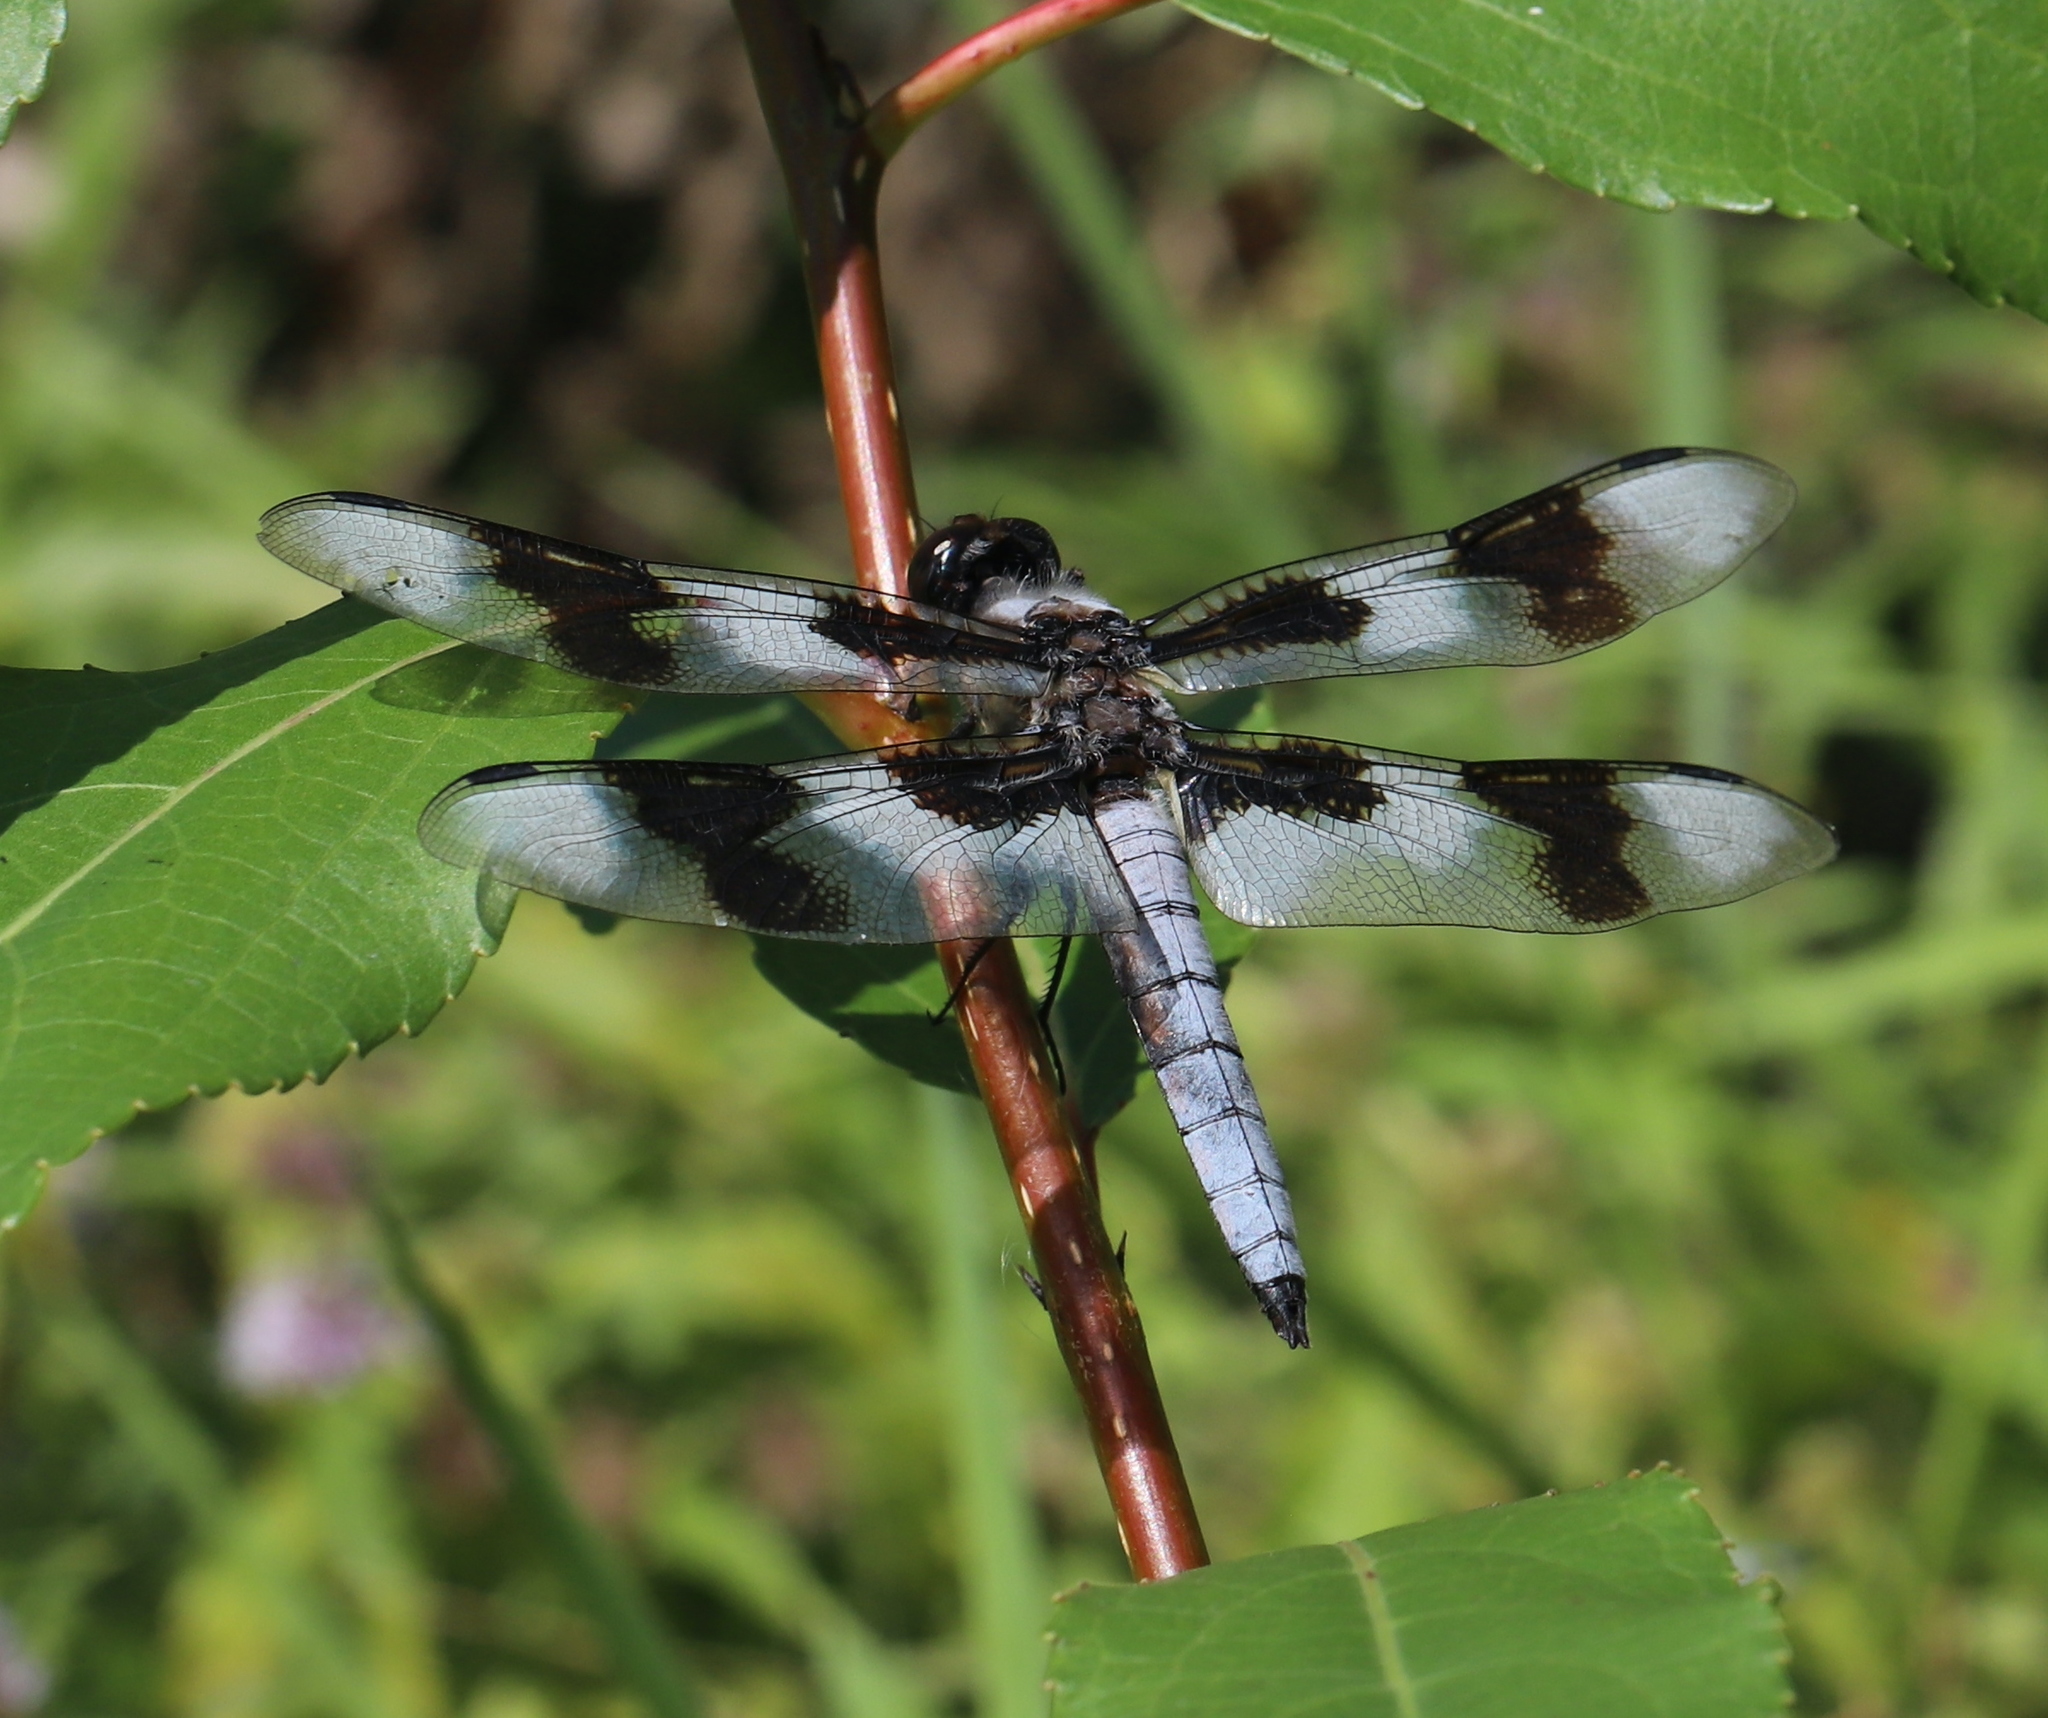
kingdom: Animalia
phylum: Arthropoda
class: Insecta
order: Odonata
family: Libellulidae
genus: Libellula
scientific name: Libellula forensis
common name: Eight-spotted skimmer
